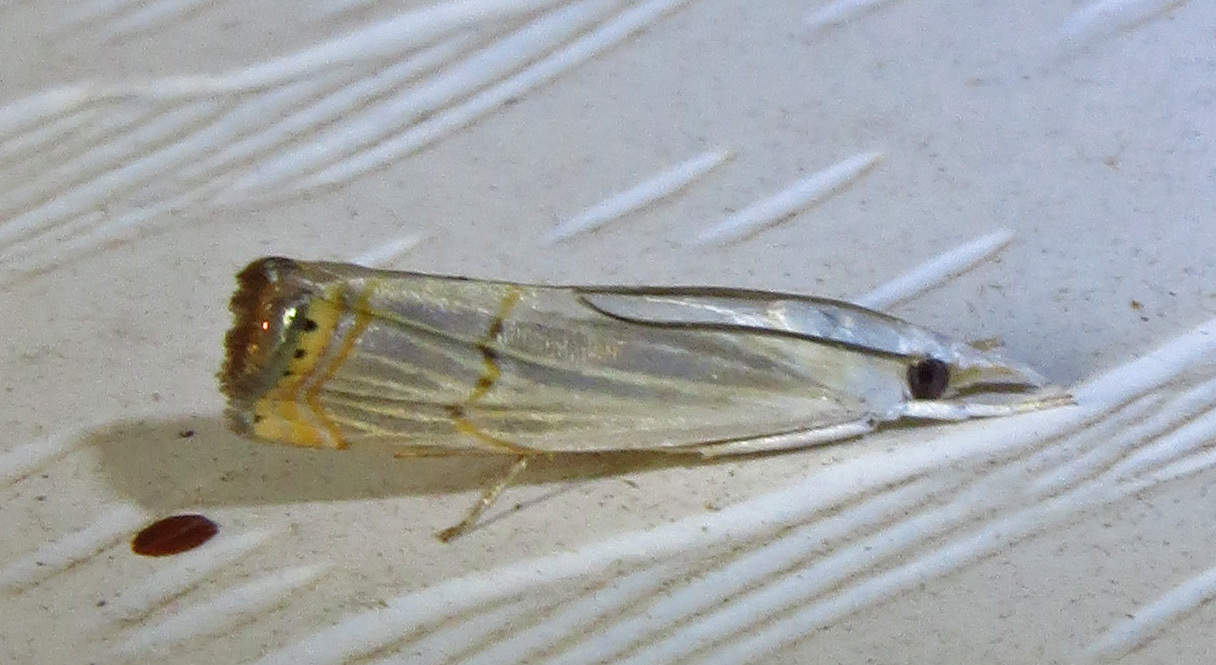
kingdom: Animalia
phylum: Arthropoda
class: Insecta
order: Lepidoptera
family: Crambidae
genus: Parapediasia
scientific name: Parapediasia decorellus
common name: Graceful grass-veneer
